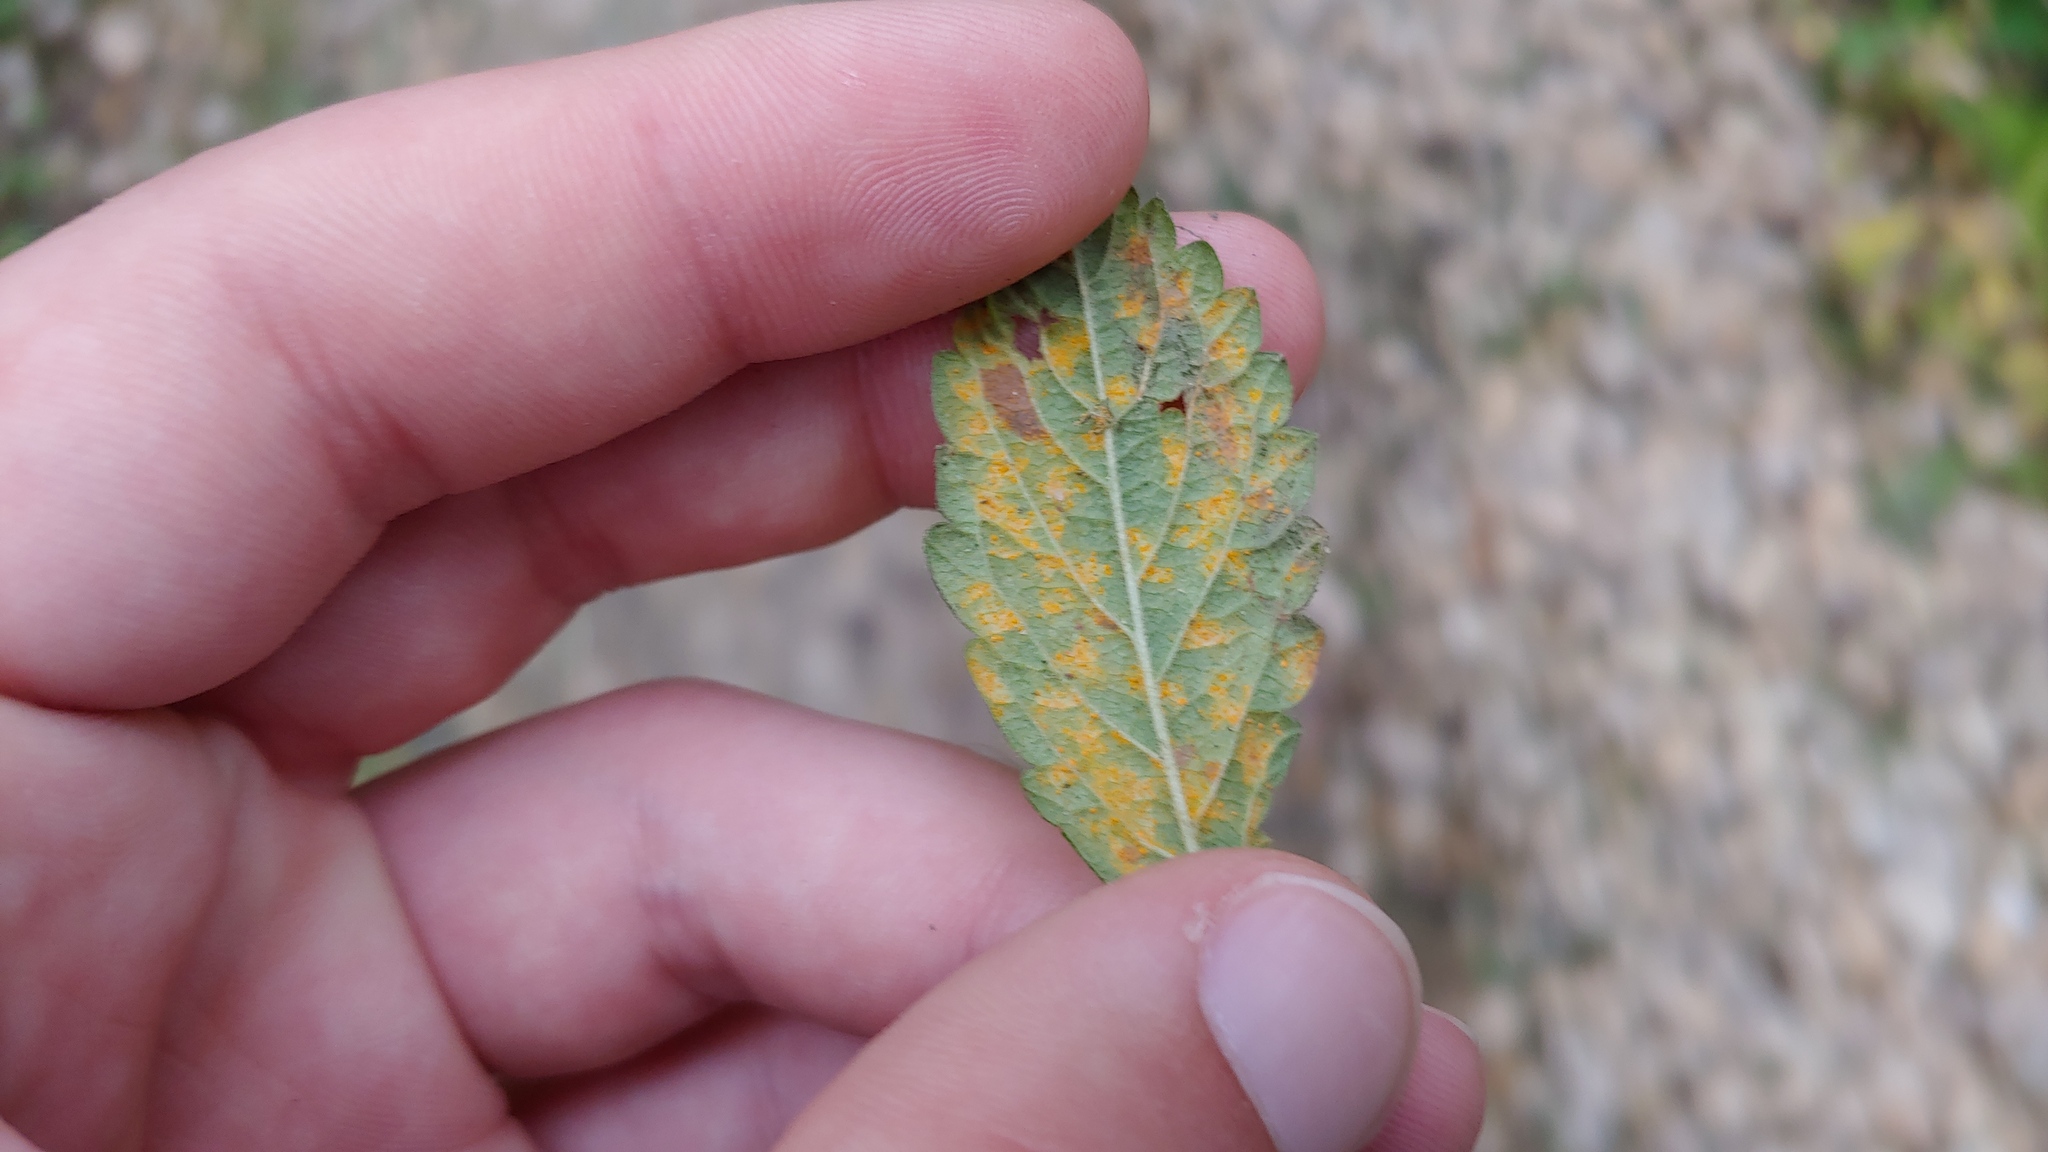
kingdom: Fungi
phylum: Basidiomycota
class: Pucciniomycetes
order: Pucciniales
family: Cronartiaceae
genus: Quasipucciniastrum
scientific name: Quasipucciniastrum ochraceum
